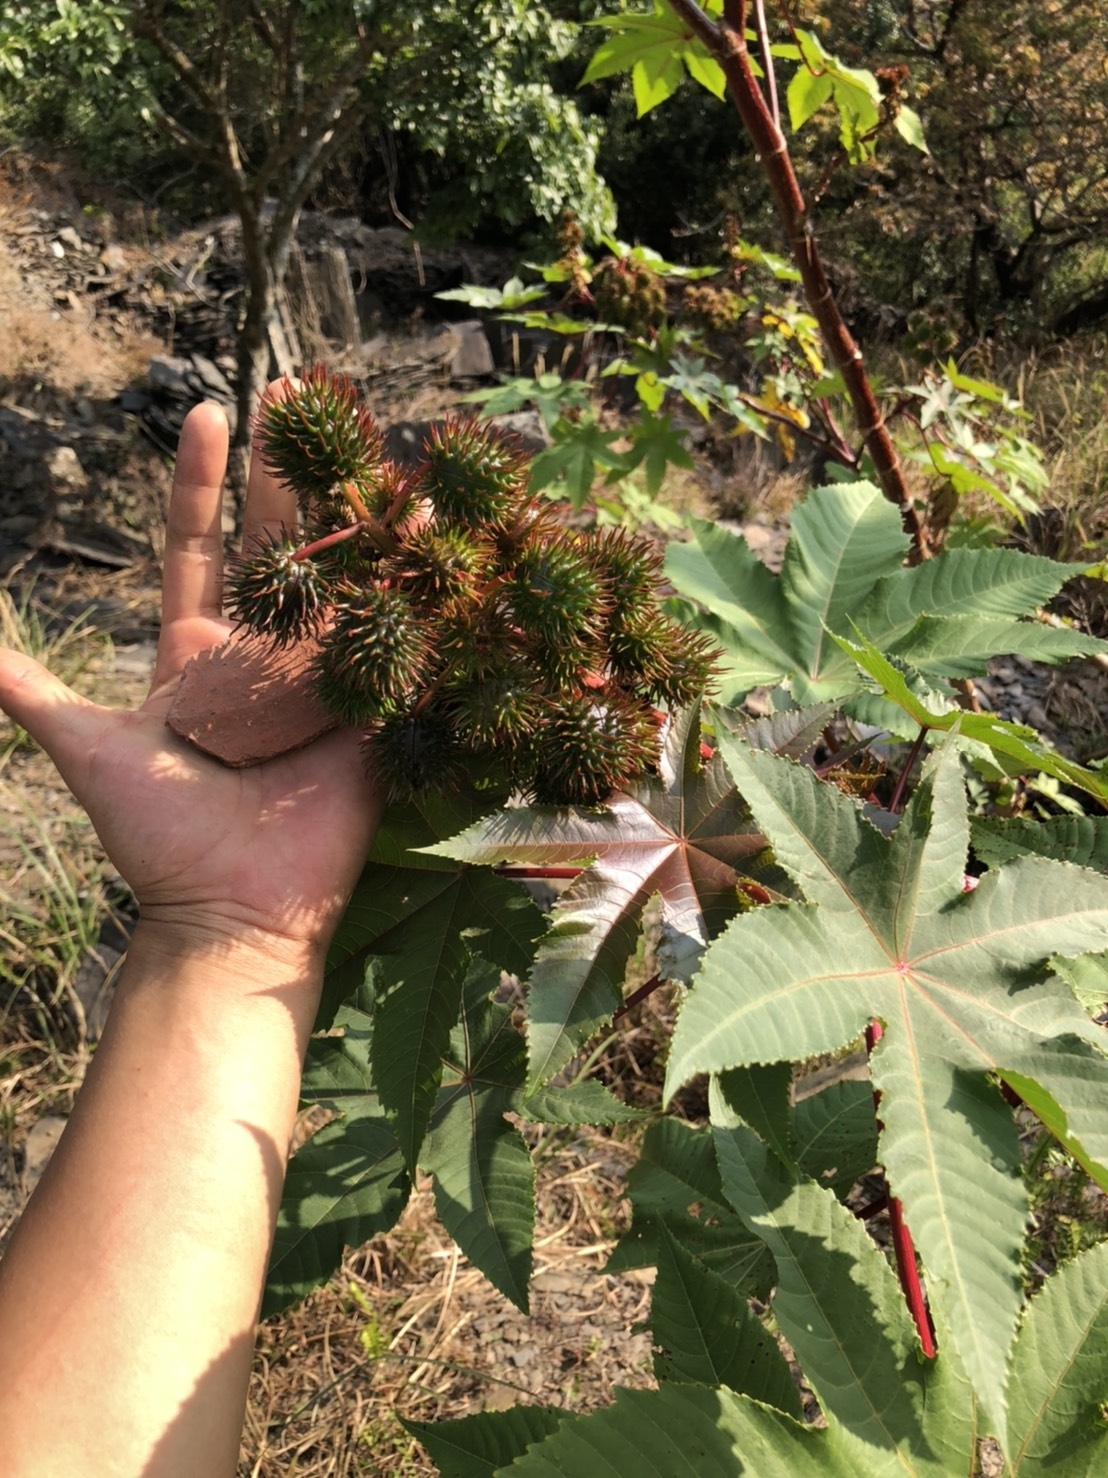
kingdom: Plantae
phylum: Tracheophyta
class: Magnoliopsida
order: Malpighiales
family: Euphorbiaceae
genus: Ricinus
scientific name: Ricinus communis
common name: Castor-oil-plant
